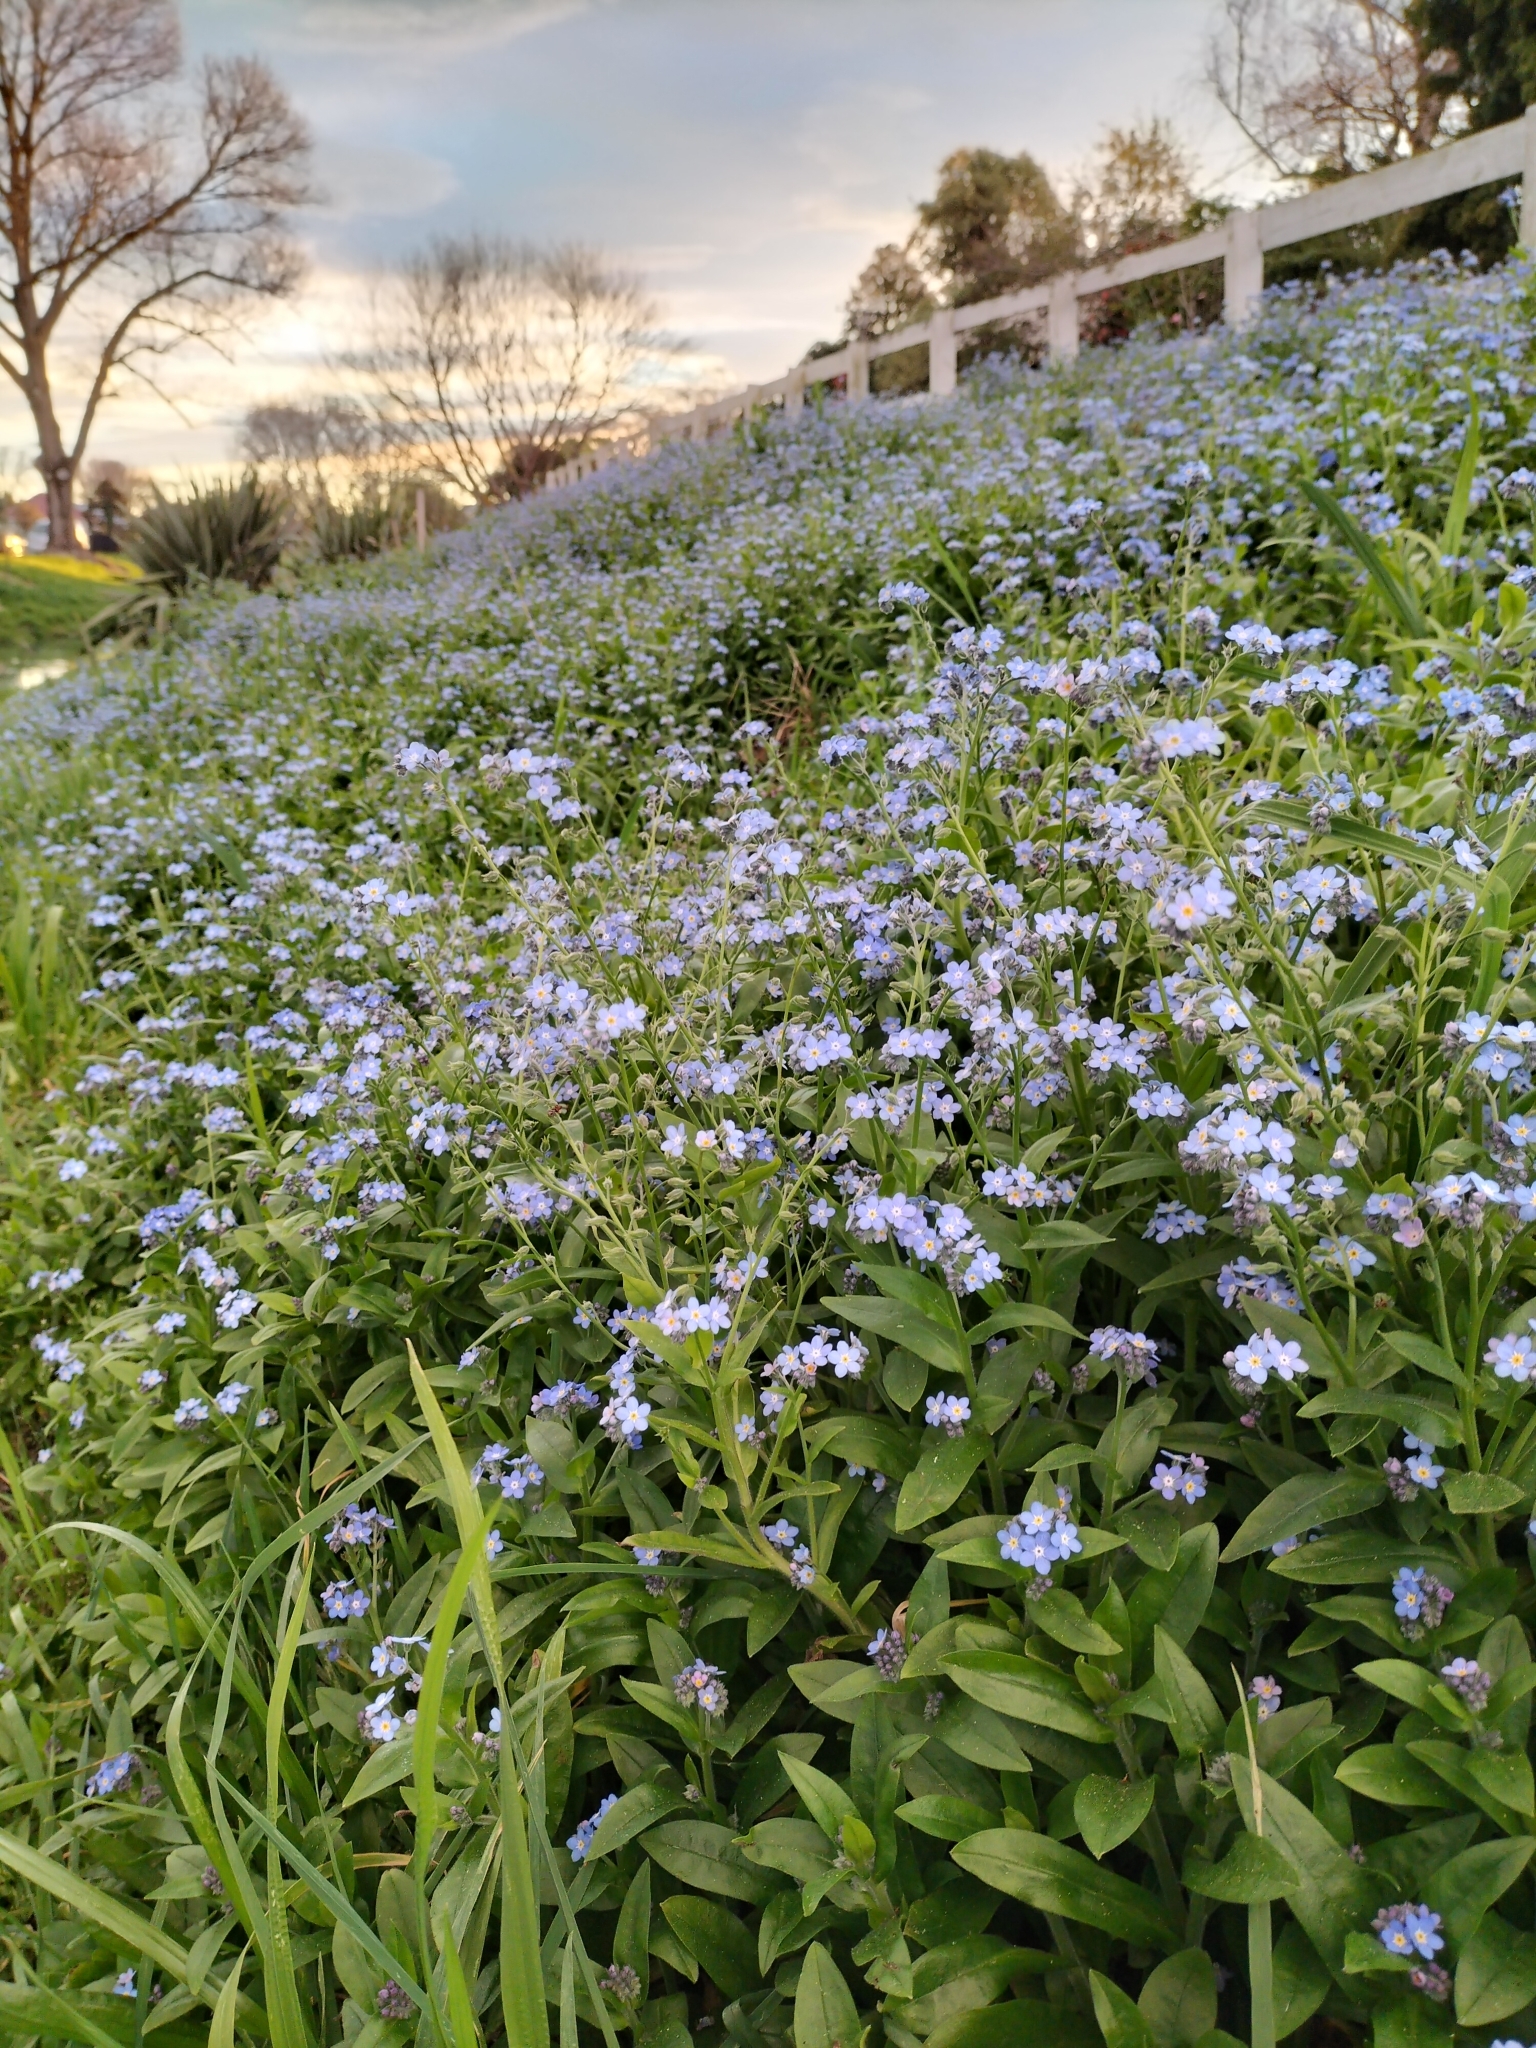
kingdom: Plantae
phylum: Tracheophyta
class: Magnoliopsida
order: Boraginales
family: Boraginaceae
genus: Myosotis
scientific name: Myosotis sylvatica
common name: Wood forget-me-not
